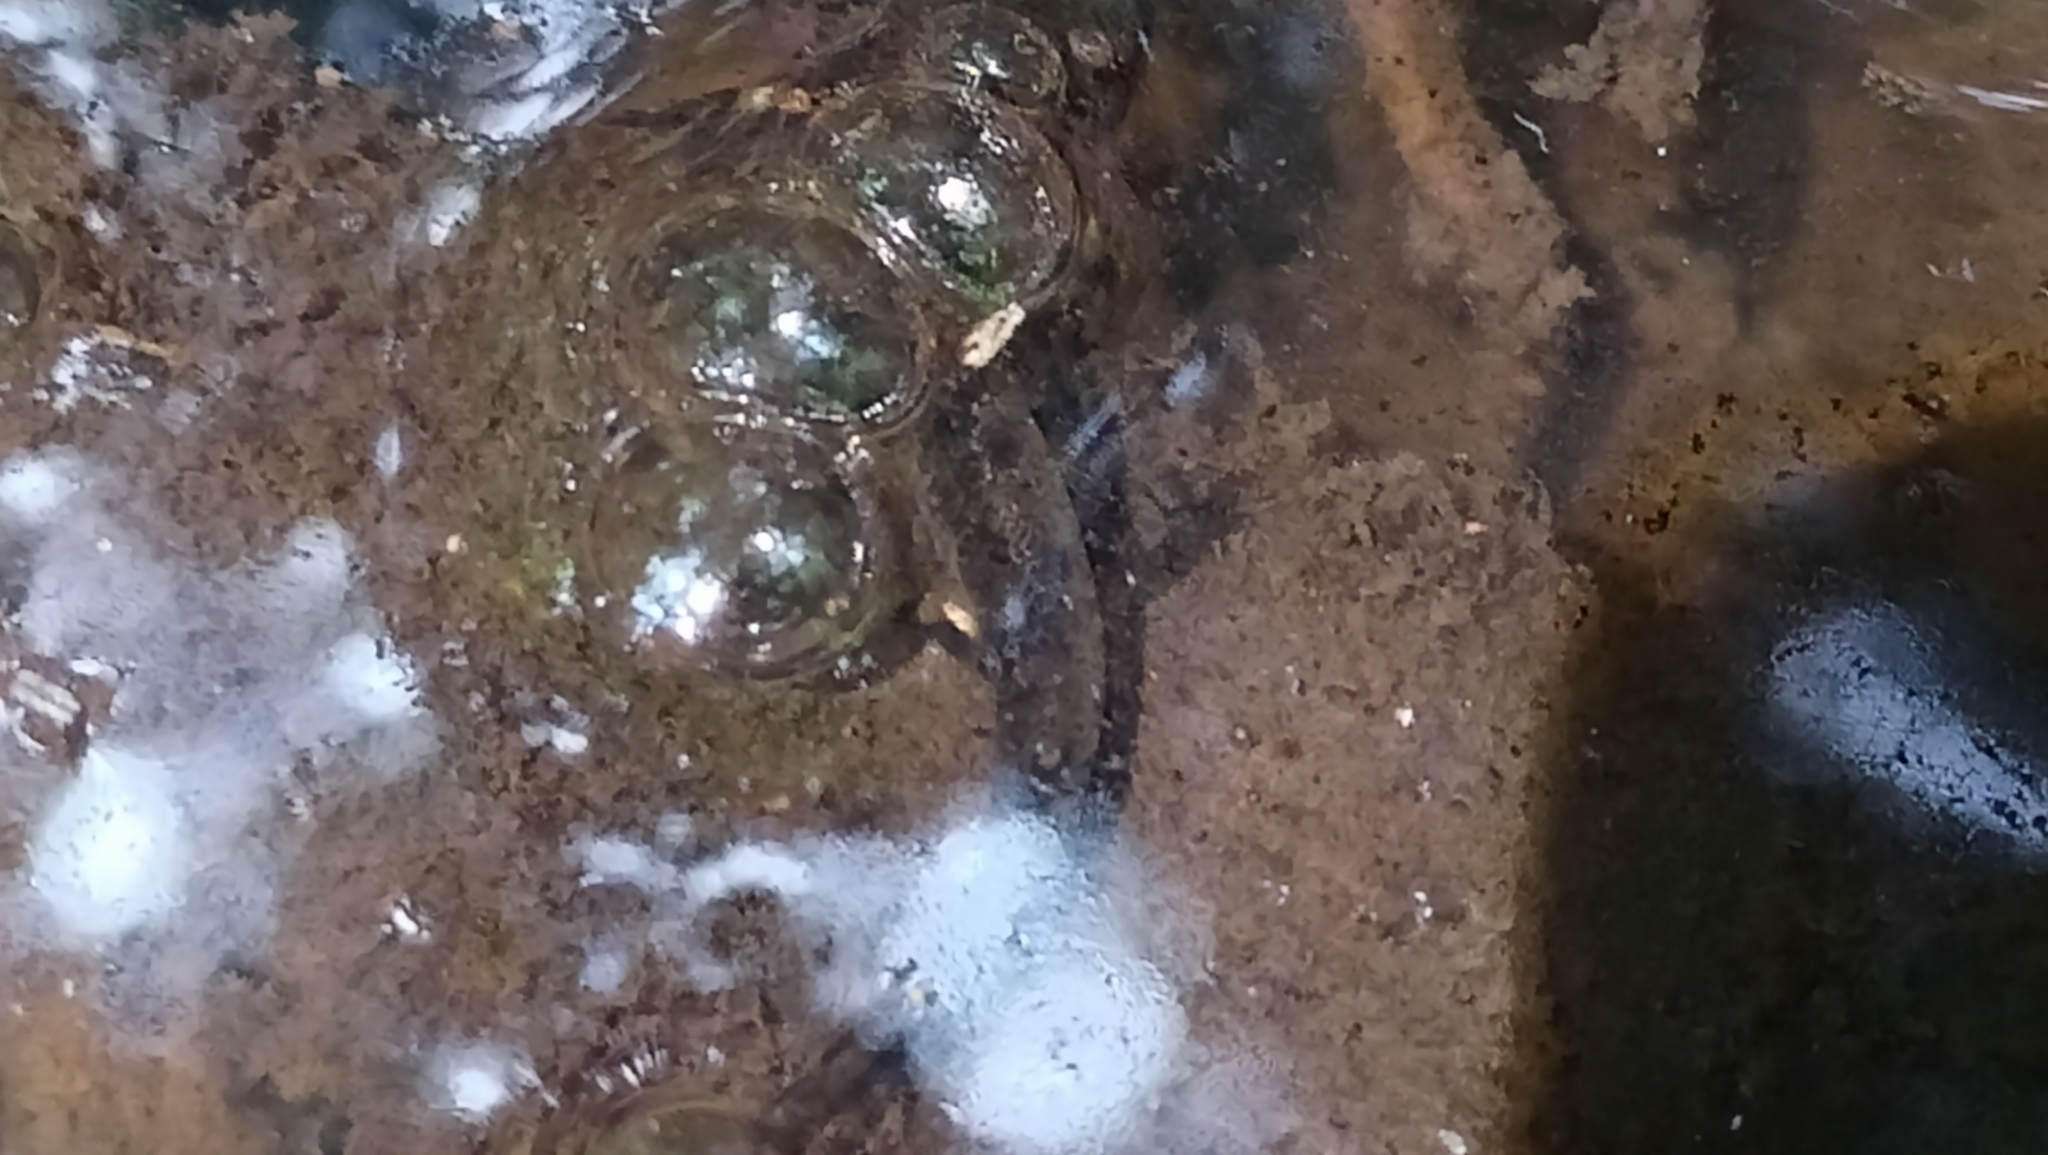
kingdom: Animalia
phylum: Chordata
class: Amphibia
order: Caudata
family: Salamandridae
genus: Salamandra
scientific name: Salamandra salamandra
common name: Fire salamander
